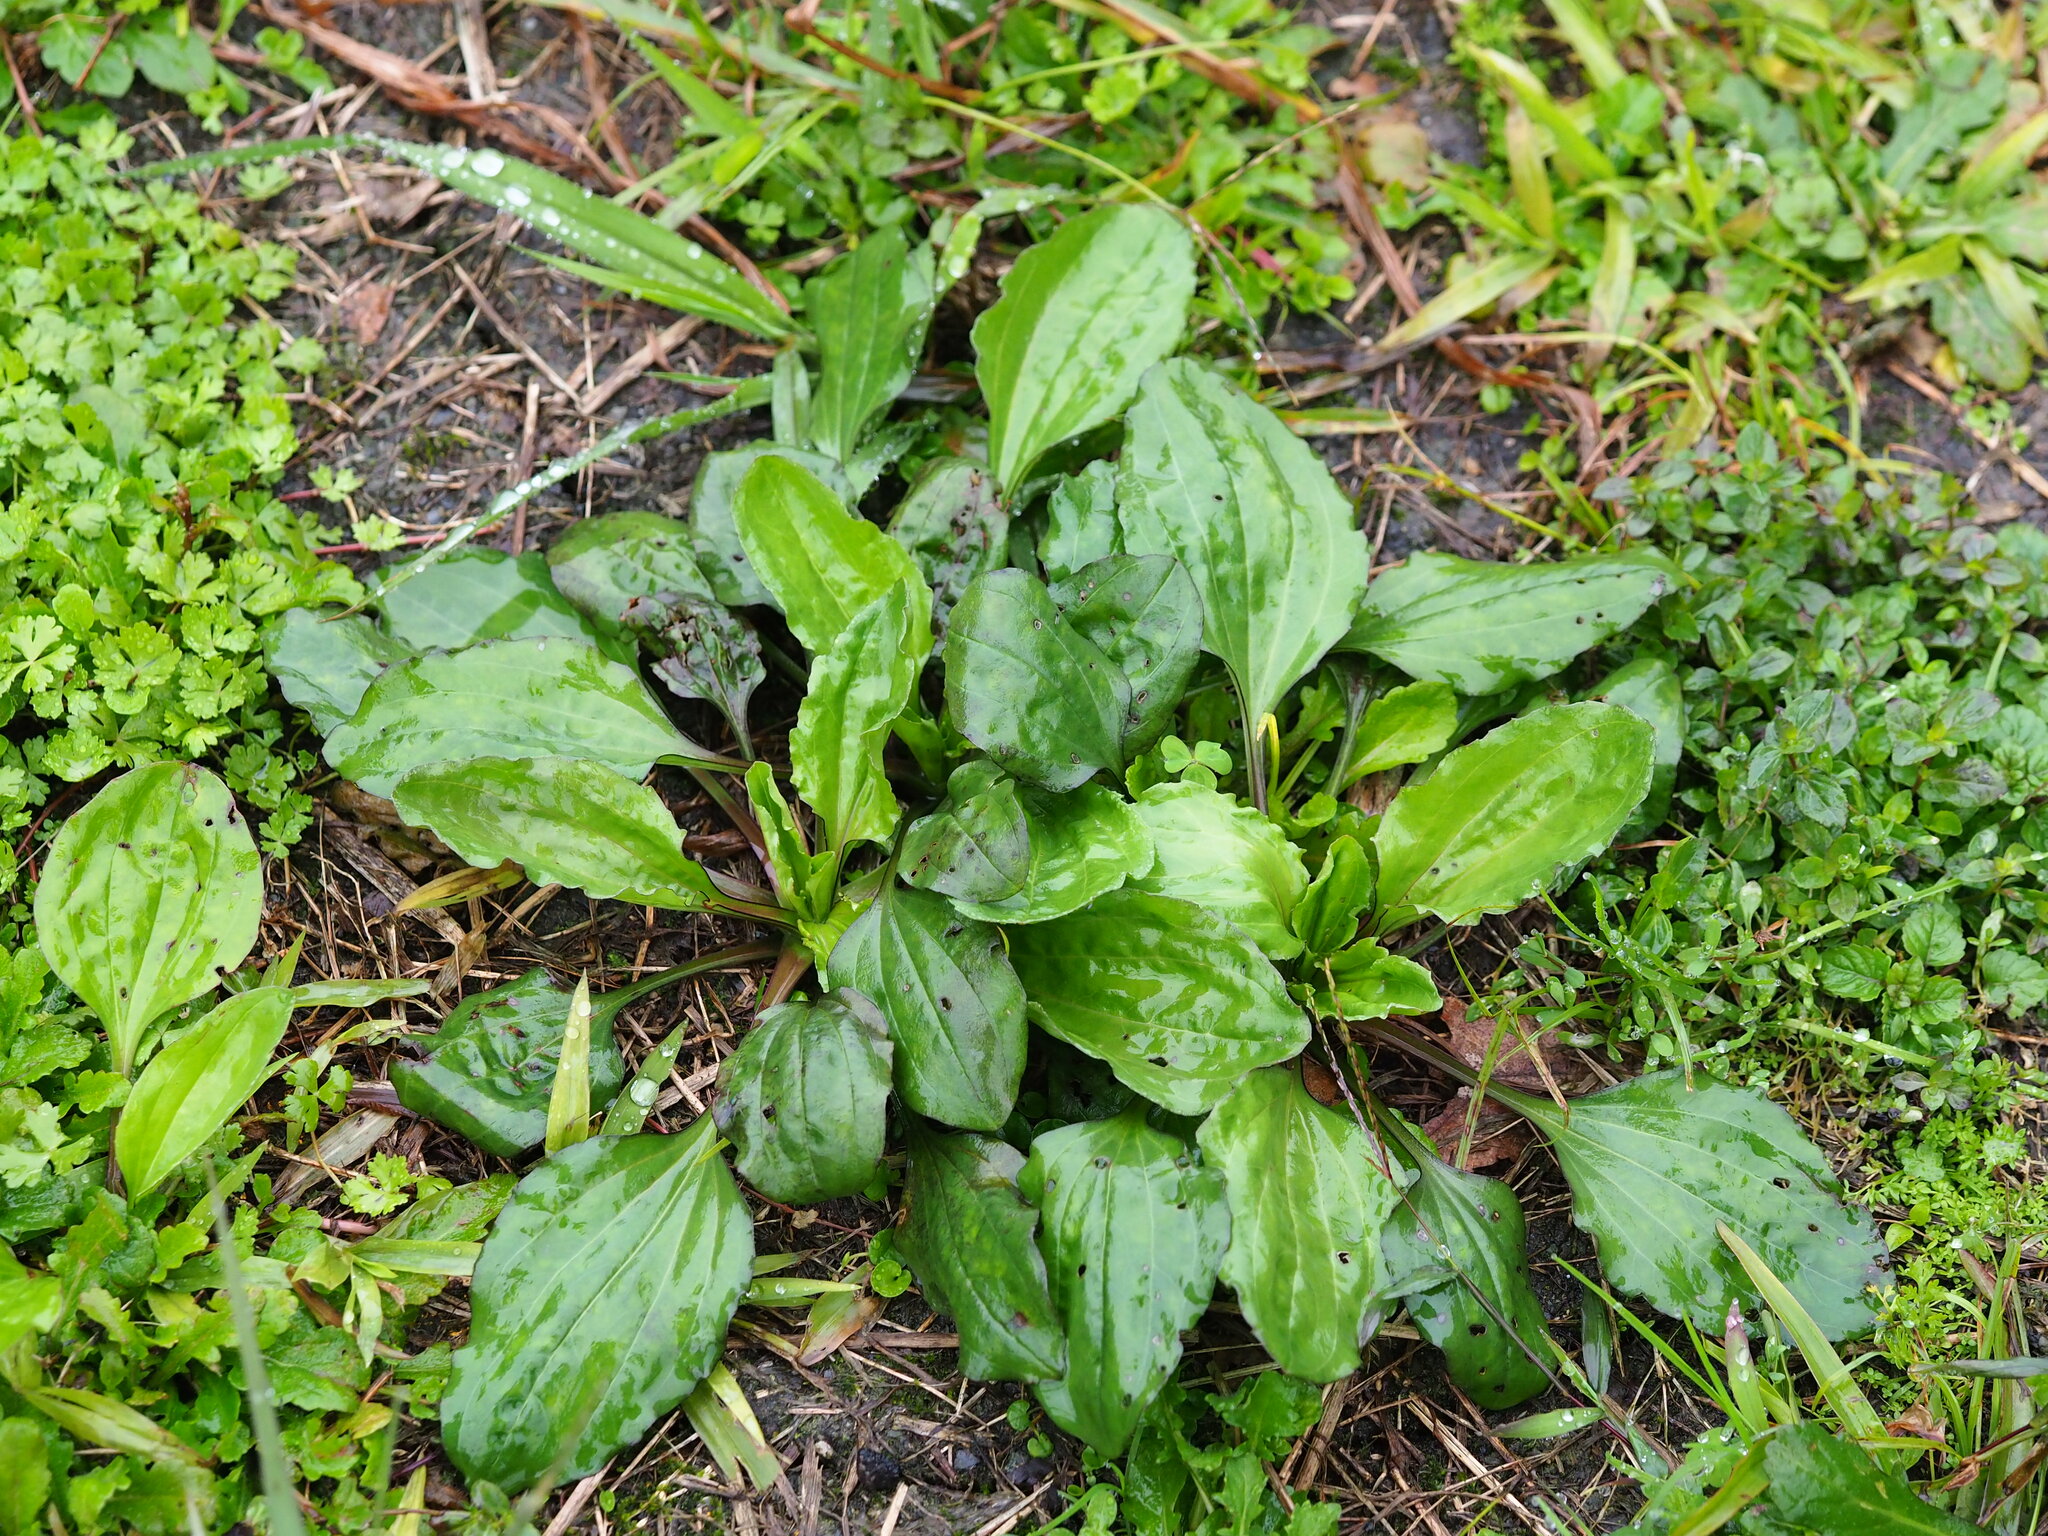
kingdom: Plantae
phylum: Tracheophyta
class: Magnoliopsida
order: Lamiales
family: Plantaginaceae
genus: Plantago
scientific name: Plantago asiatica
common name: Psyllium
